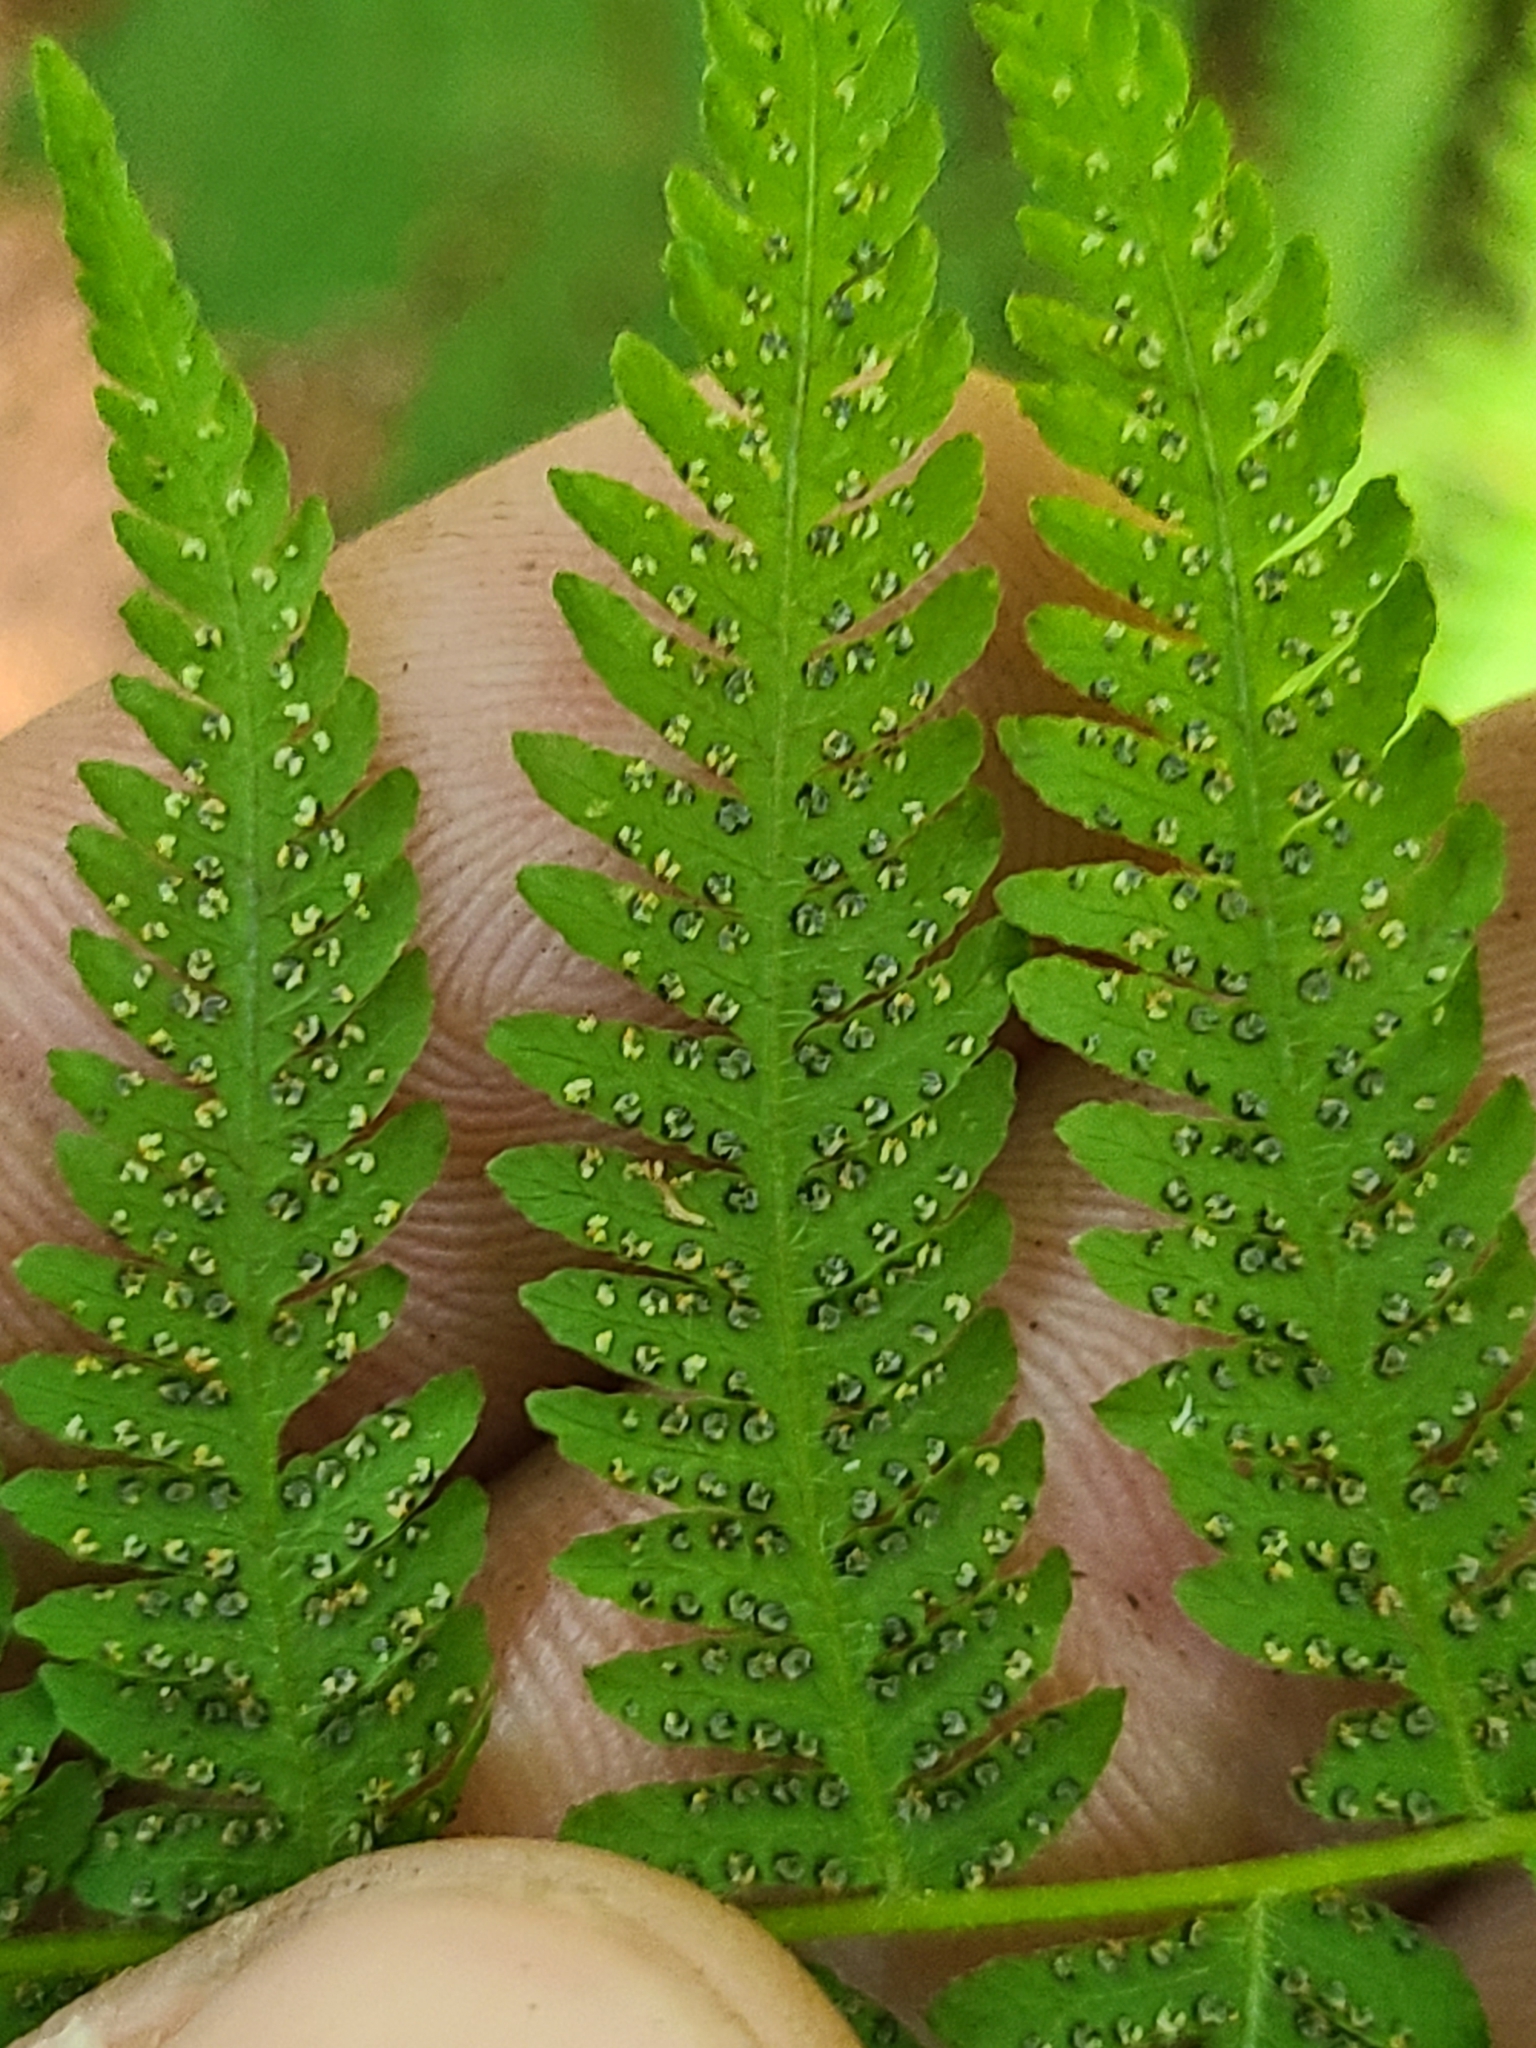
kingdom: Plantae
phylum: Tracheophyta
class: Polypodiopsida
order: Polypodiales
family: Thelypteridaceae
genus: Amauropelta
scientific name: Amauropelta noveboracensis
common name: New york fern
